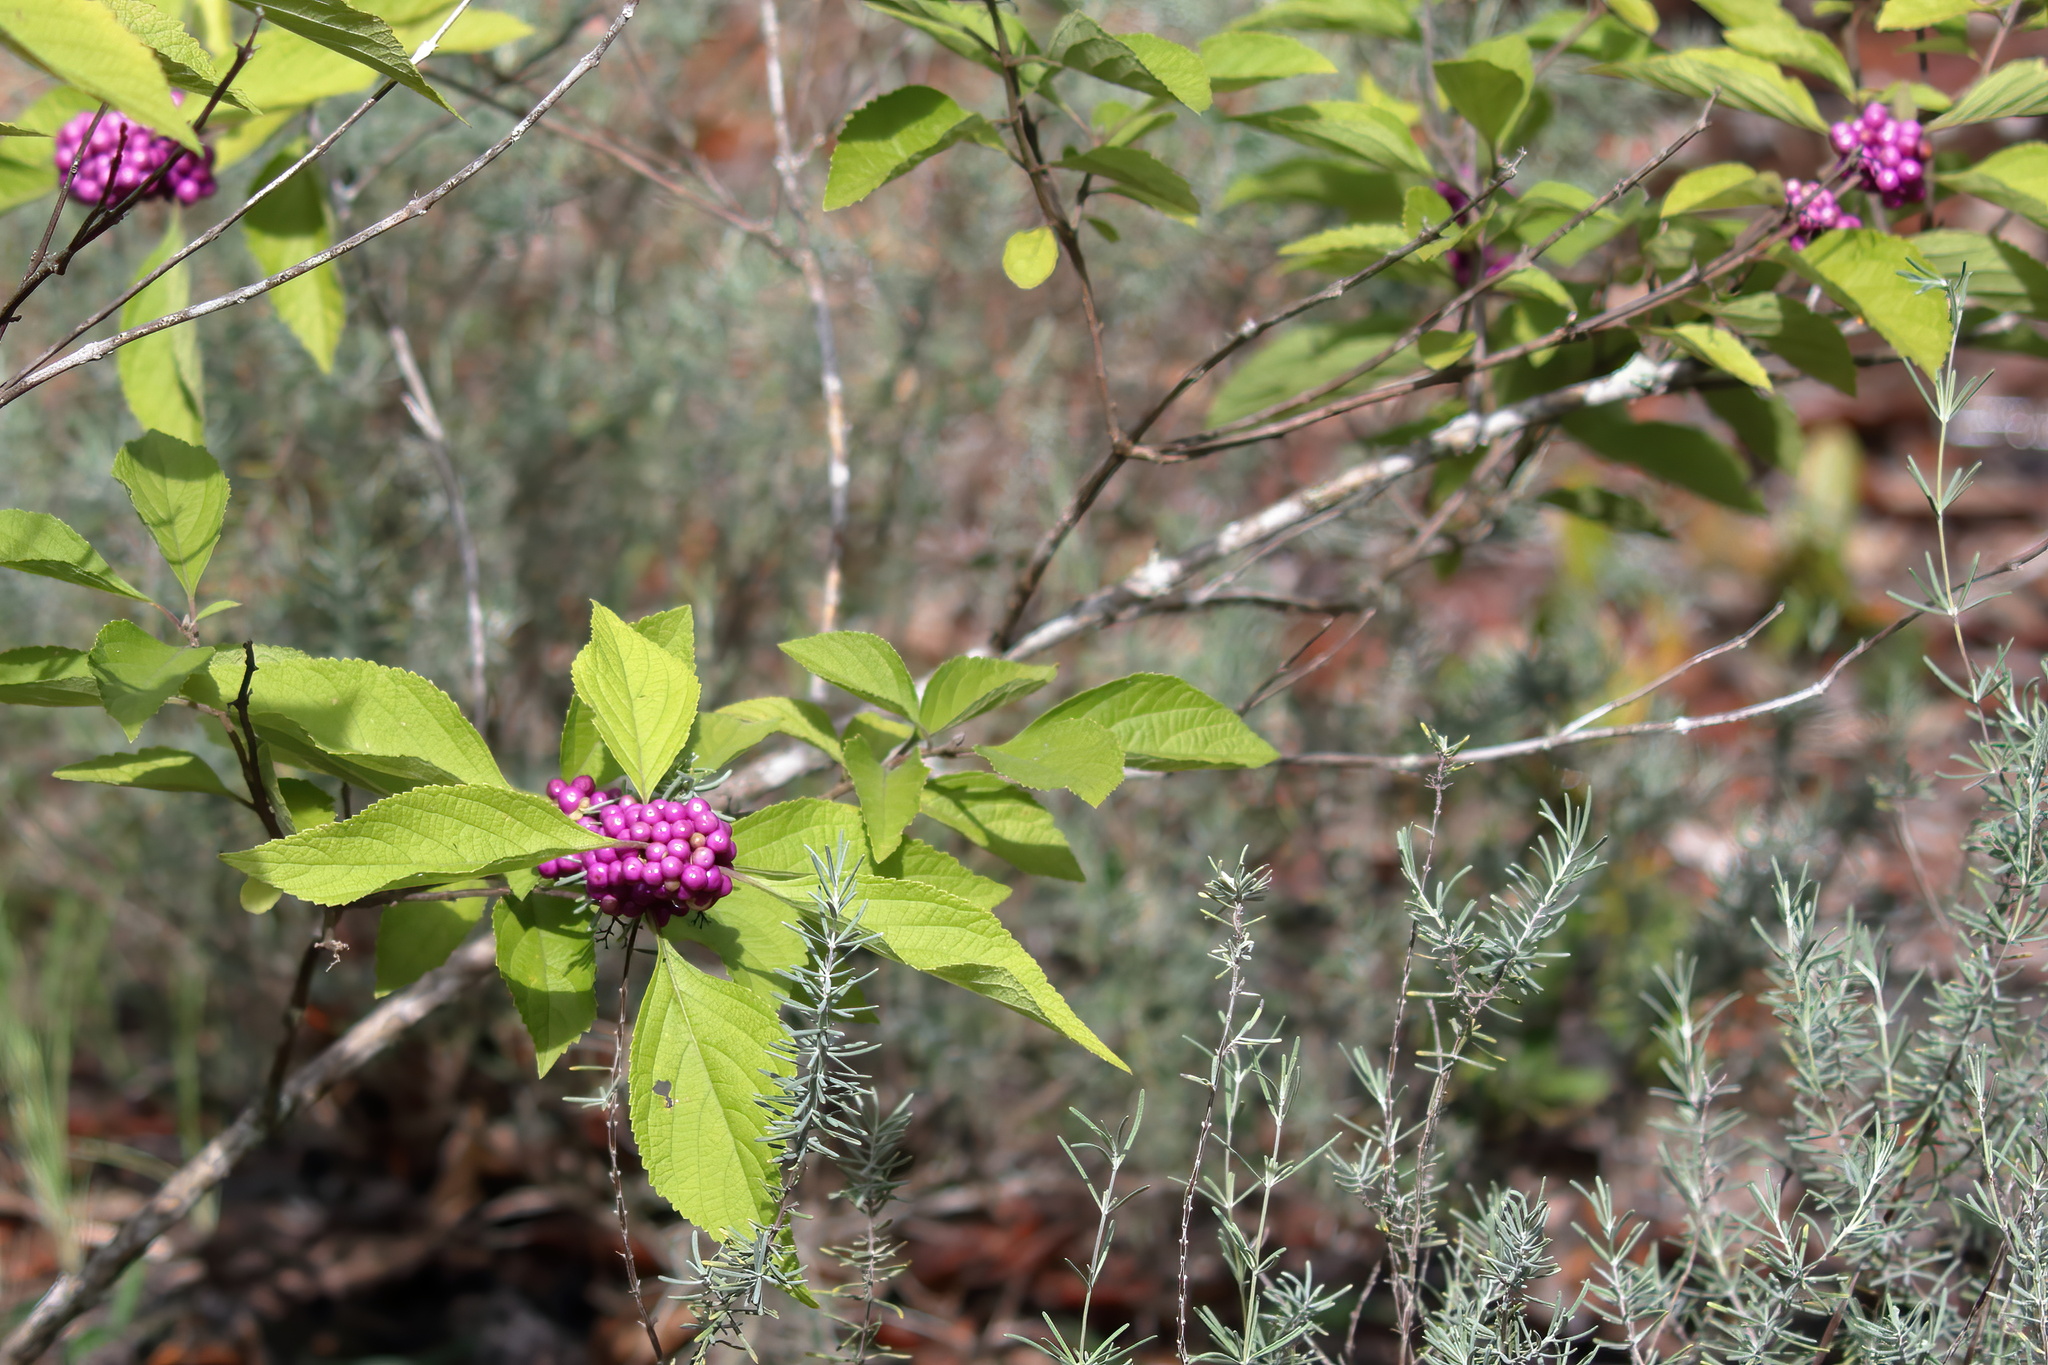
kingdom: Plantae
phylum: Tracheophyta
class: Magnoliopsida
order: Lamiales
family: Lamiaceae
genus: Callicarpa
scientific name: Callicarpa americana
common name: American beautyberry
